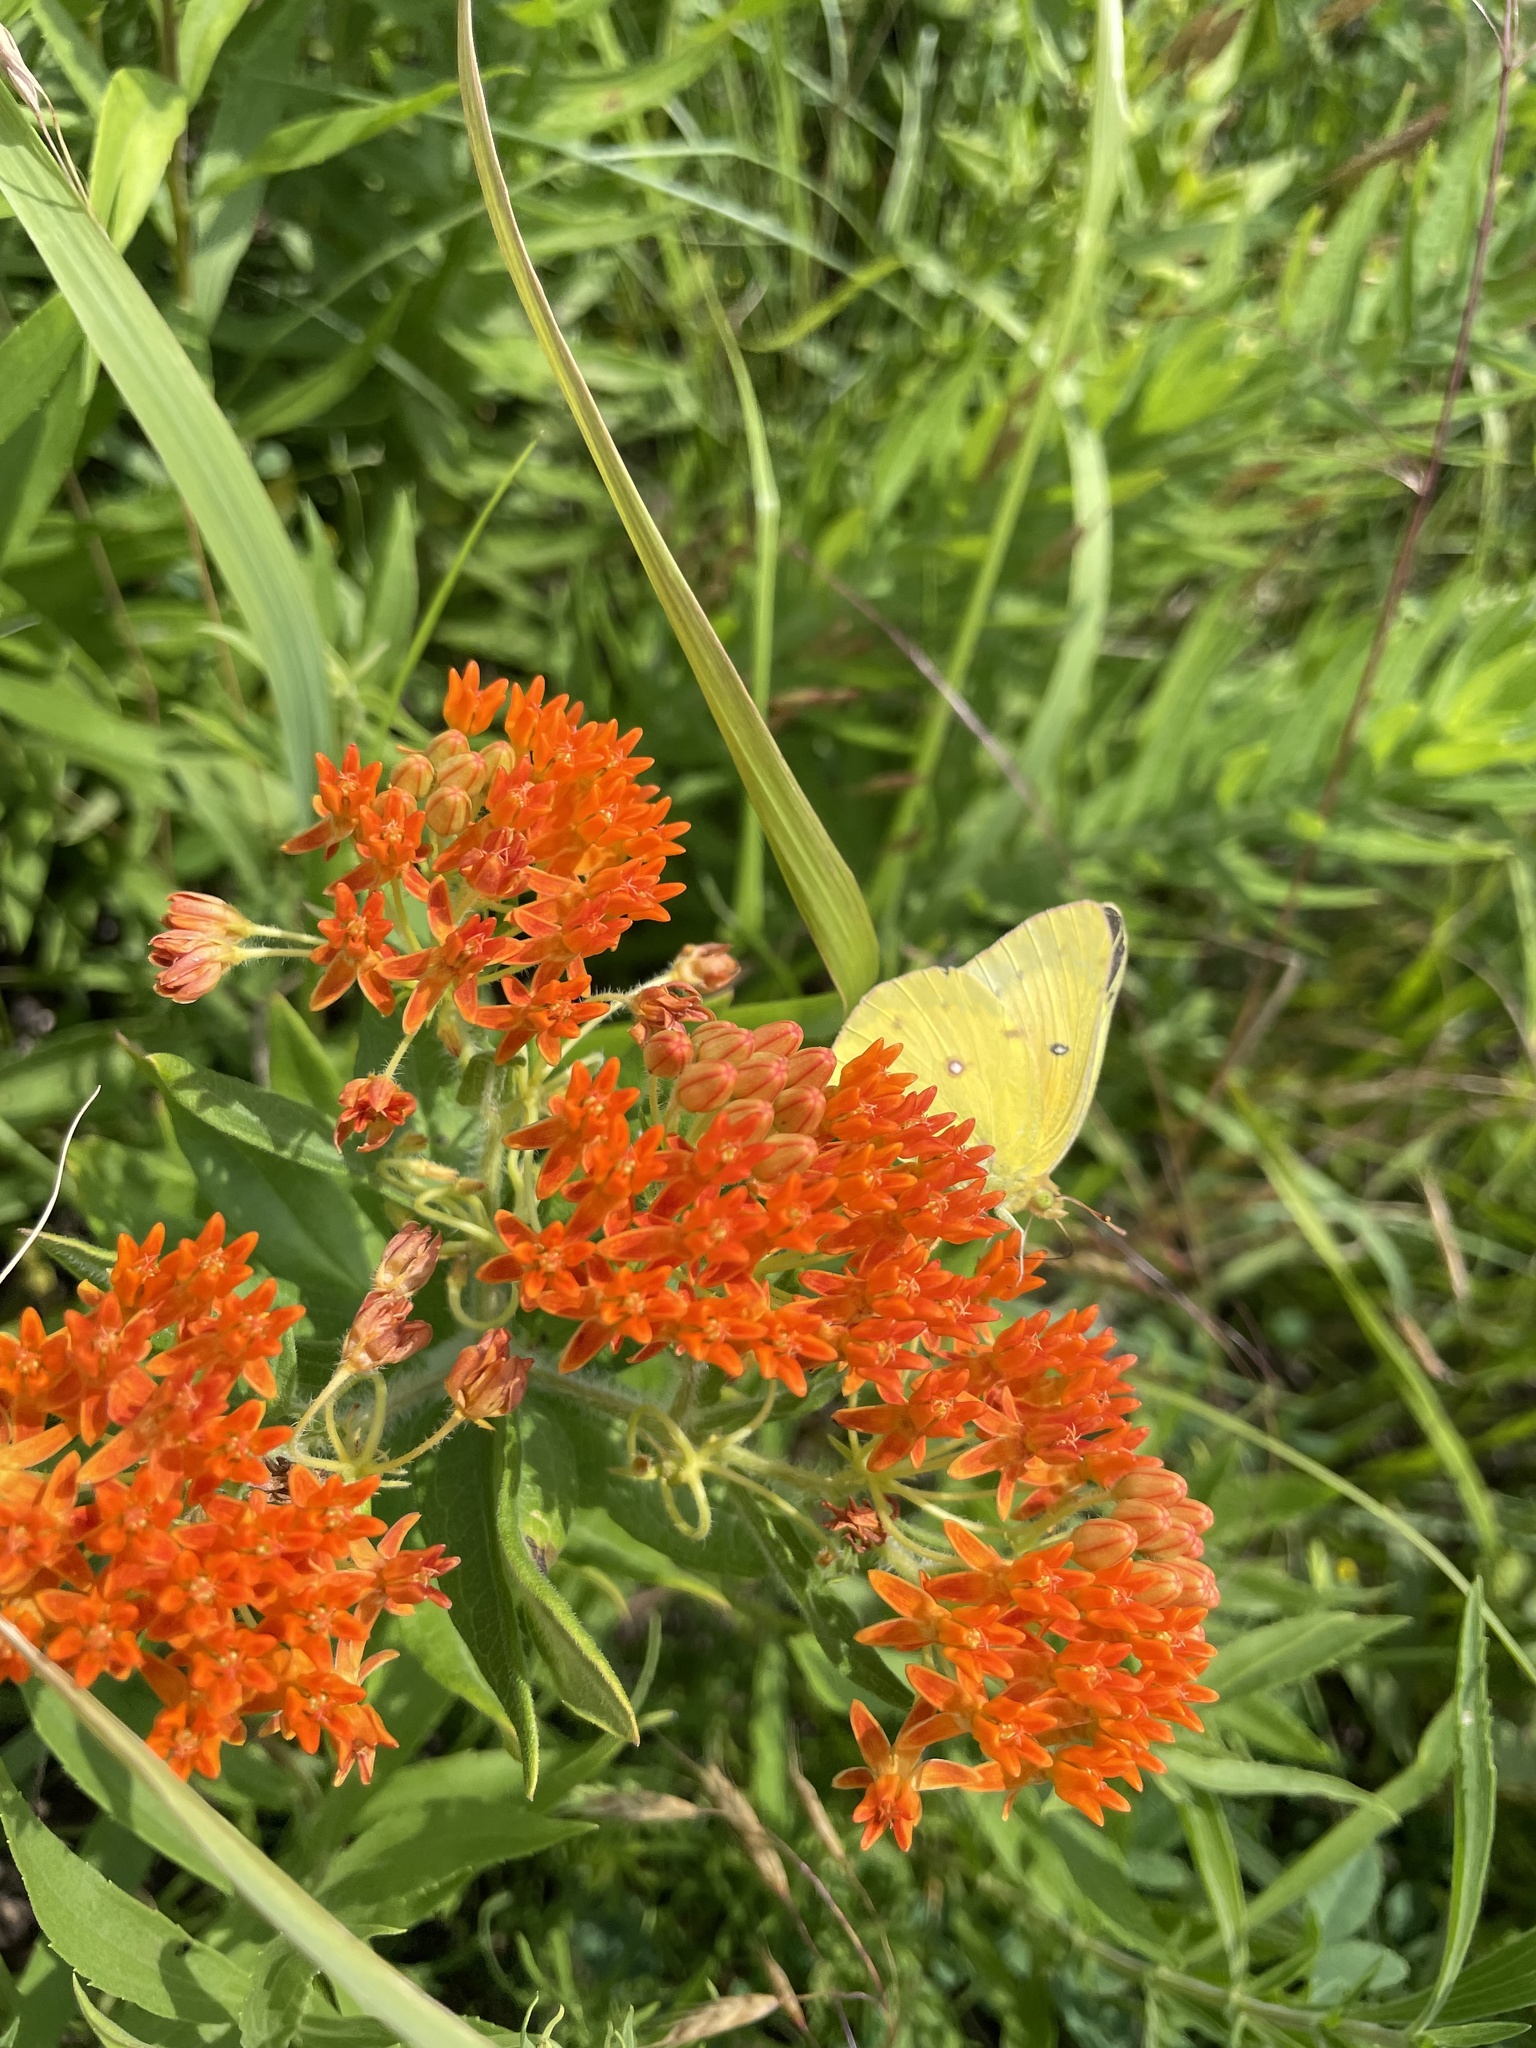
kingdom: Animalia
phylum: Arthropoda
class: Insecta
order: Lepidoptera
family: Pieridae
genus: Colias
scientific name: Colias eurytheme
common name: Alfalfa butterfly
